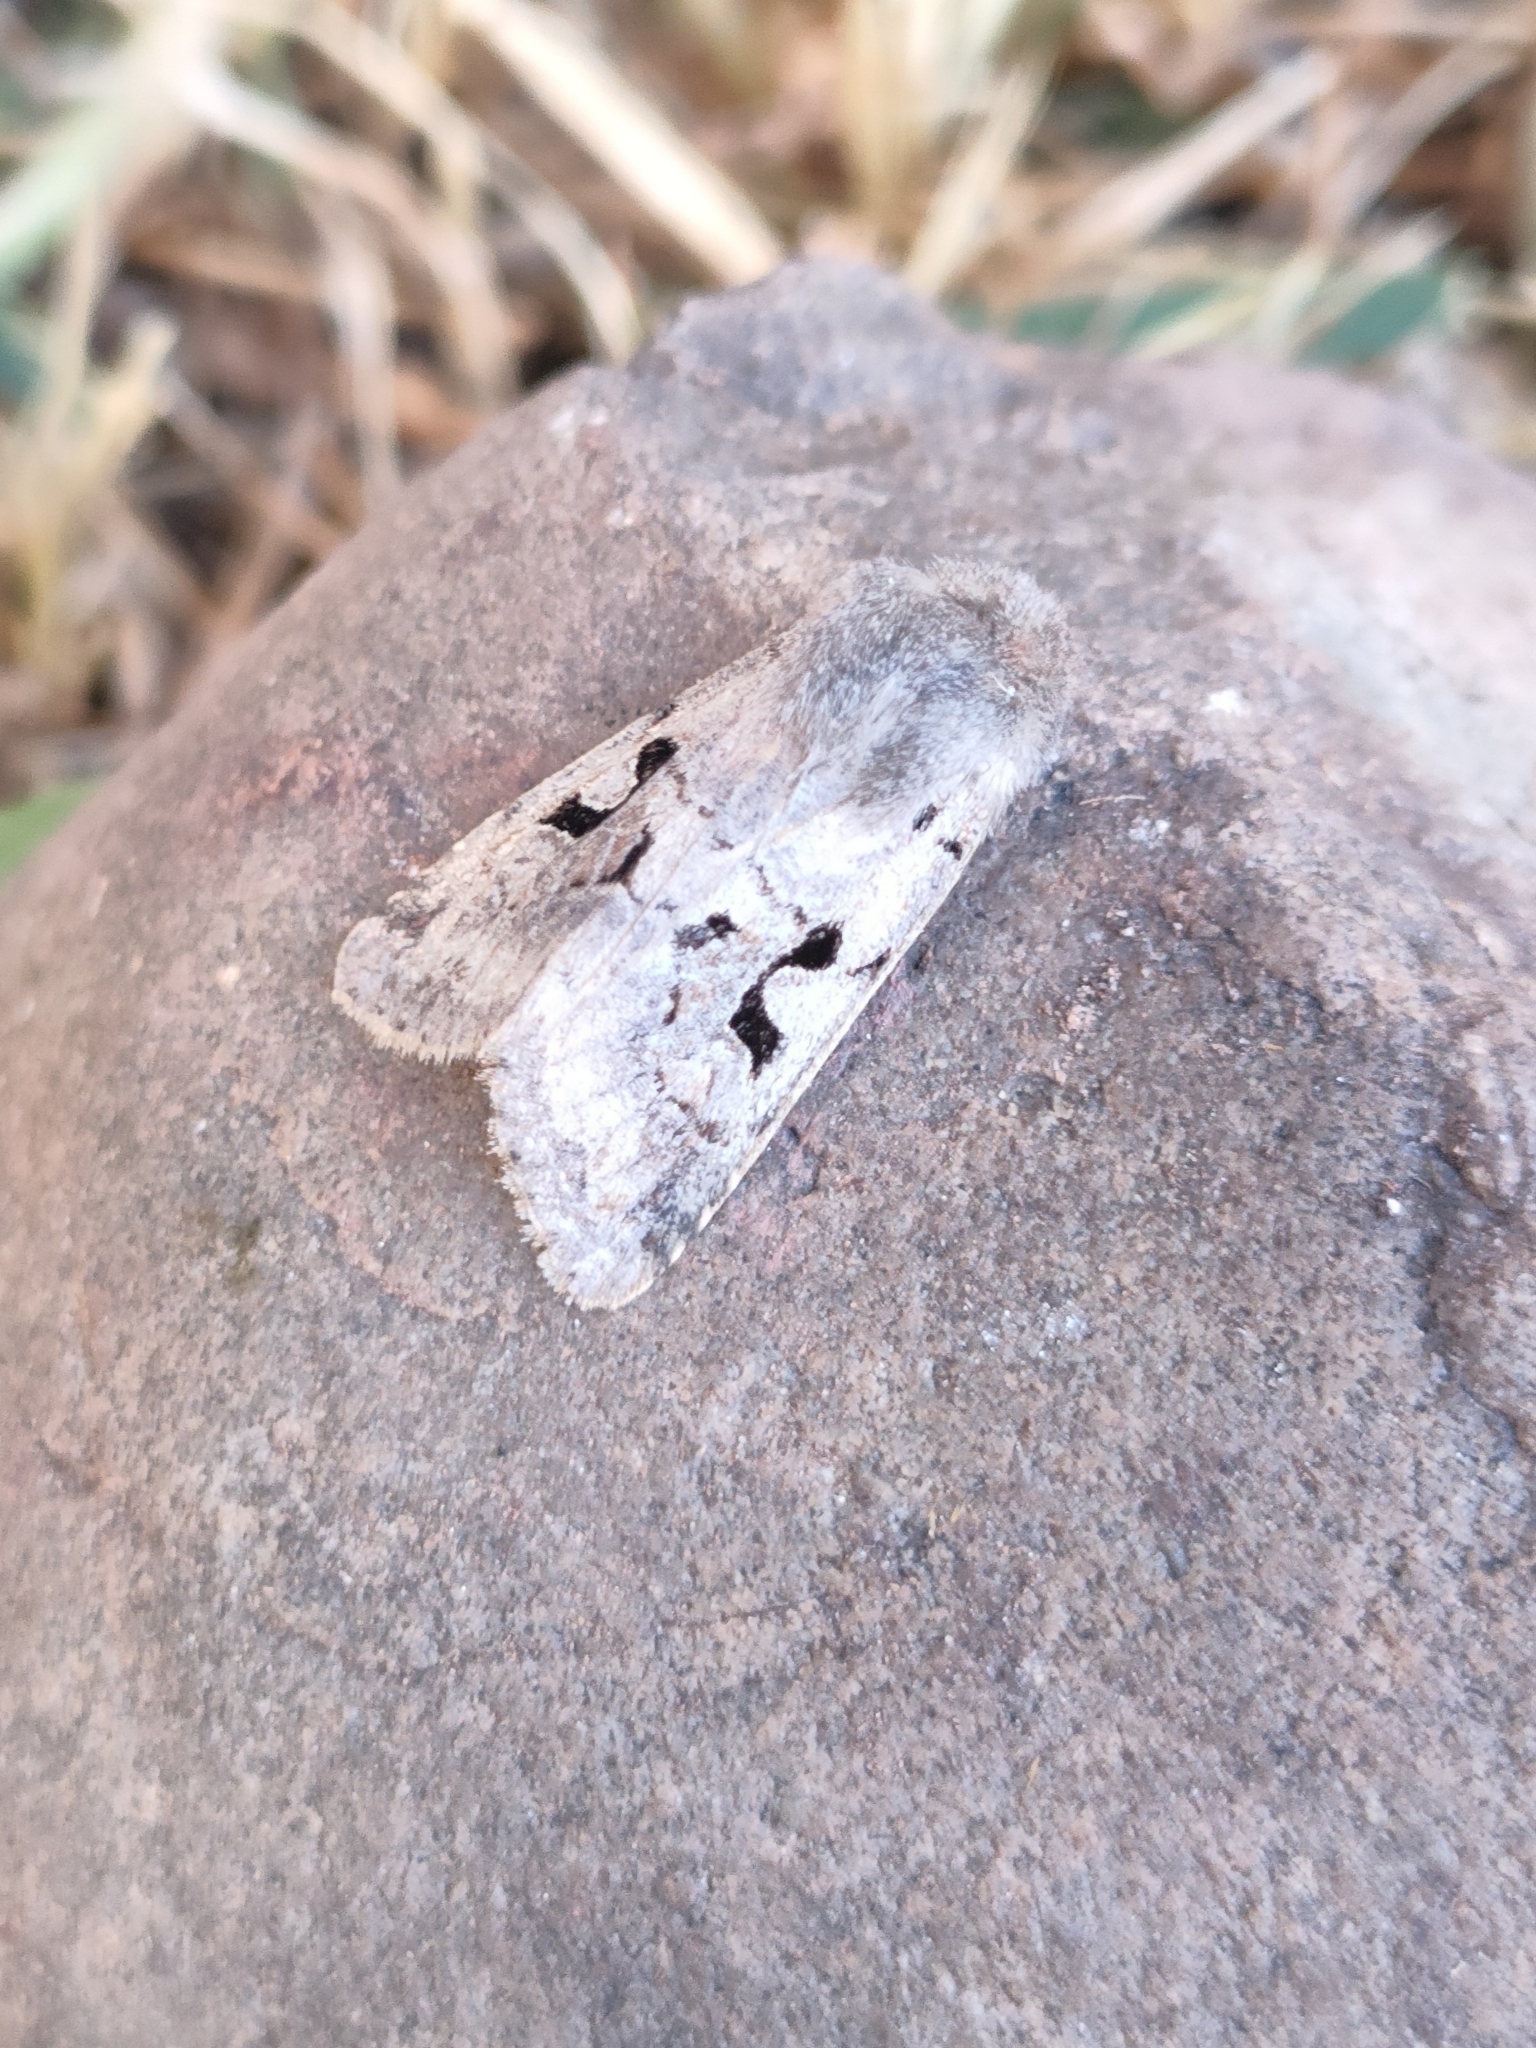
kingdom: Animalia
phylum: Arthropoda
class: Insecta
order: Lepidoptera
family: Noctuidae
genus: Orthosia
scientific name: Orthosia gothica
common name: Hebrew character
